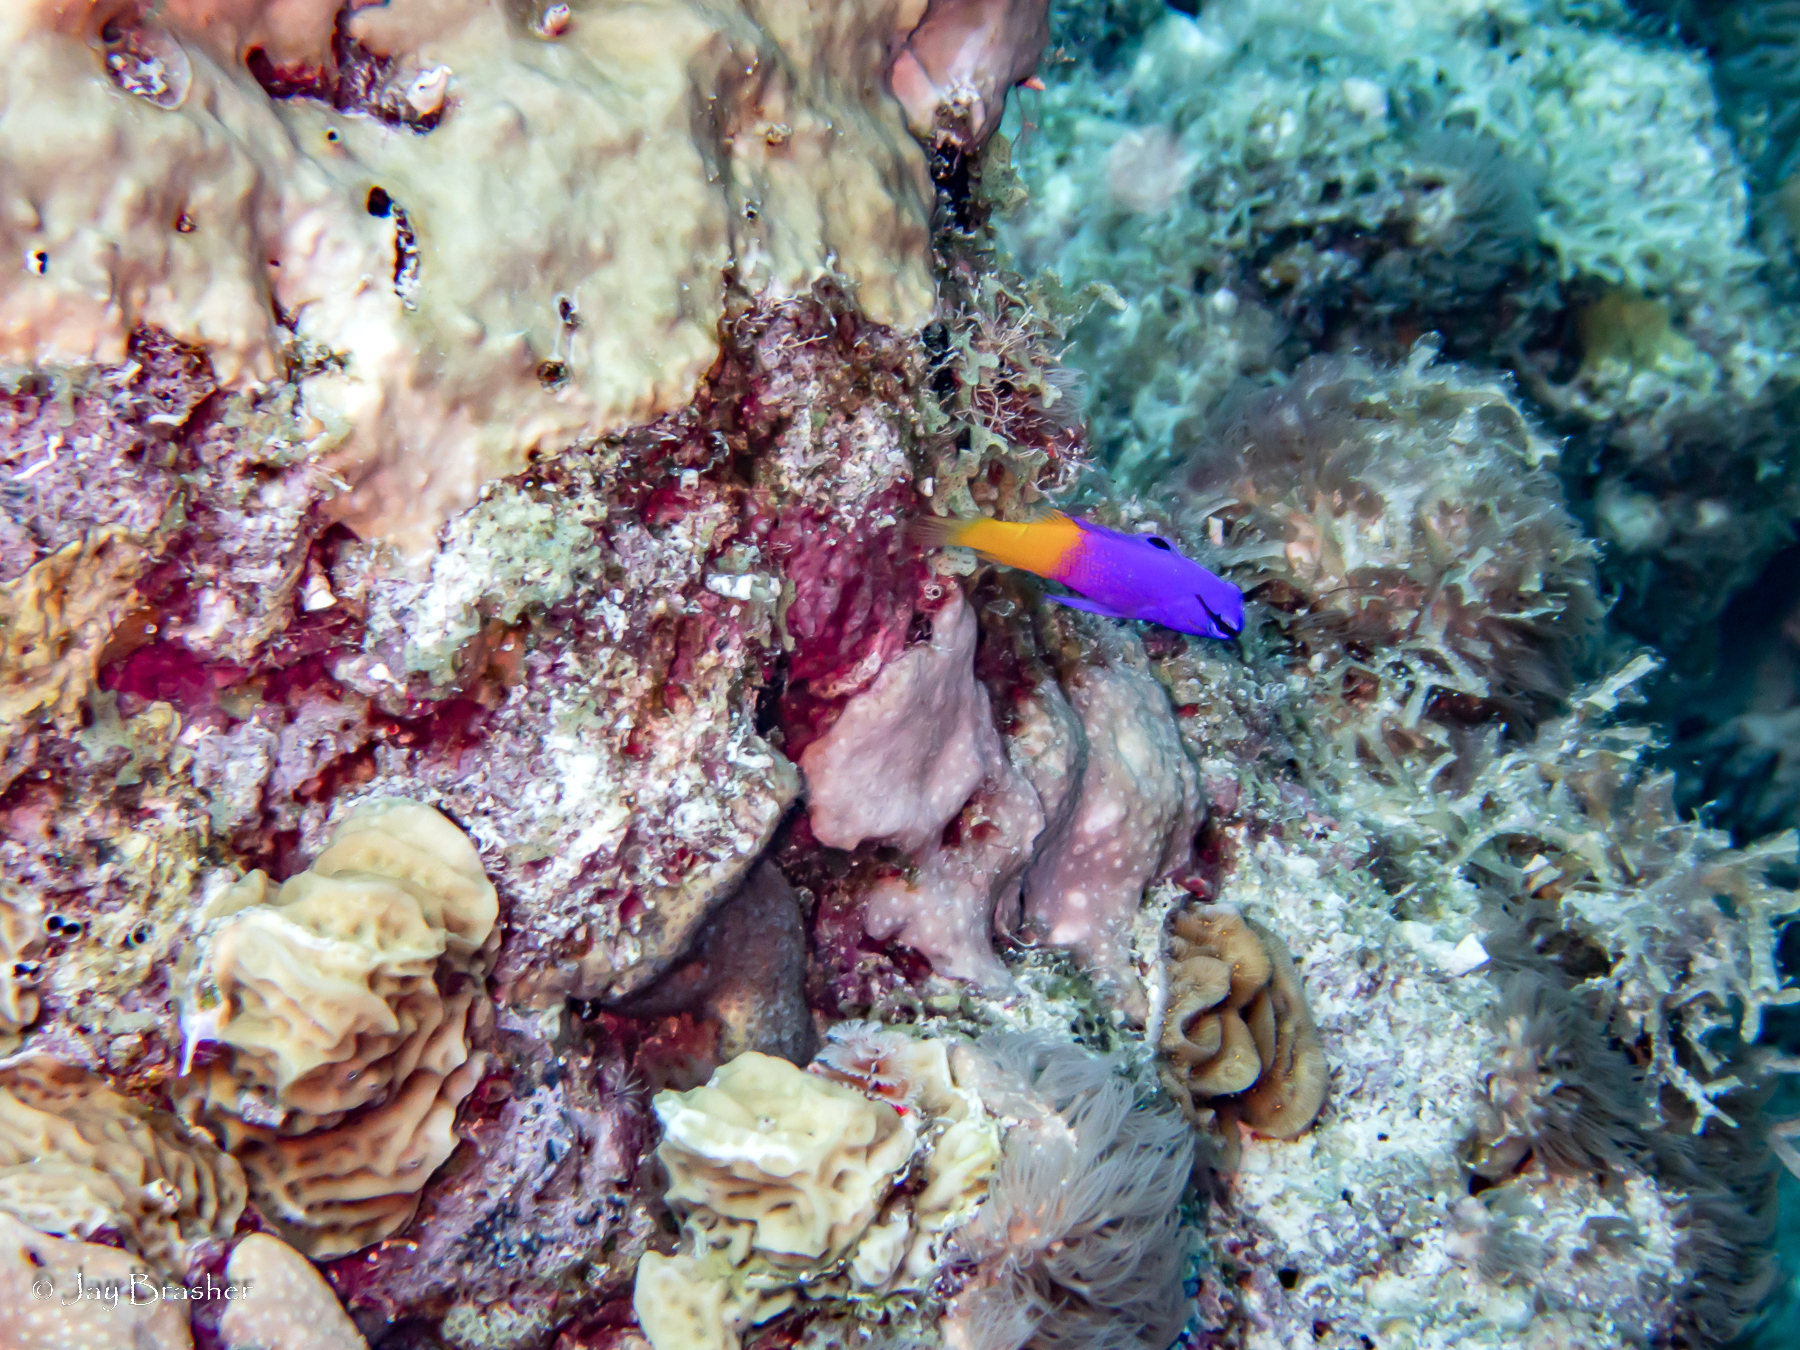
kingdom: Animalia
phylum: Chordata
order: Perciformes
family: Grammatidae
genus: Gramma
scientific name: Gramma loreto
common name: Fairy basslet
